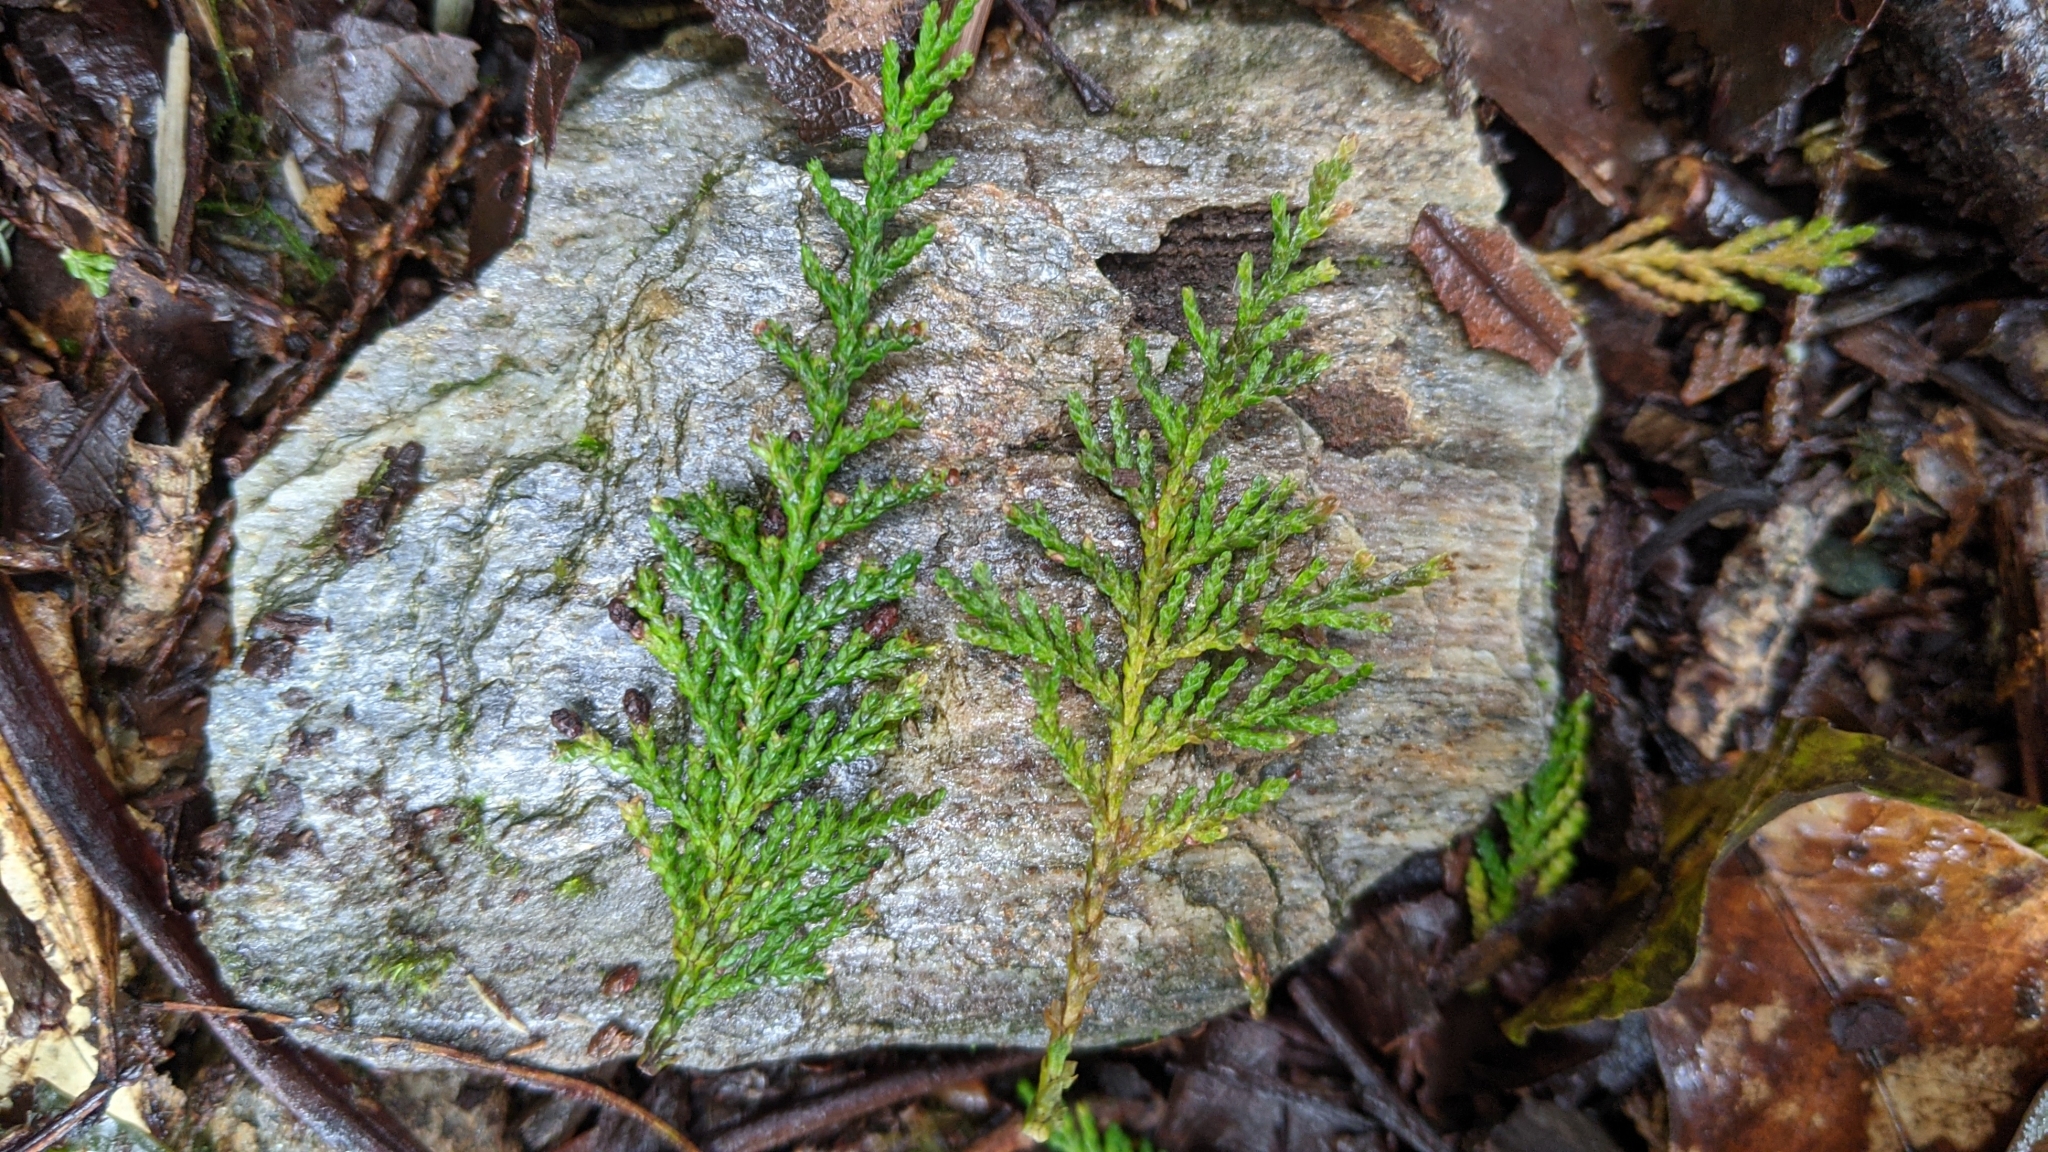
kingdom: Plantae
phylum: Tracheophyta
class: Pinopsida
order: Pinales
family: Cupressaceae
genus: Chamaecyparis
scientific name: Chamaecyparis formosensis
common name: Formosan cypress
